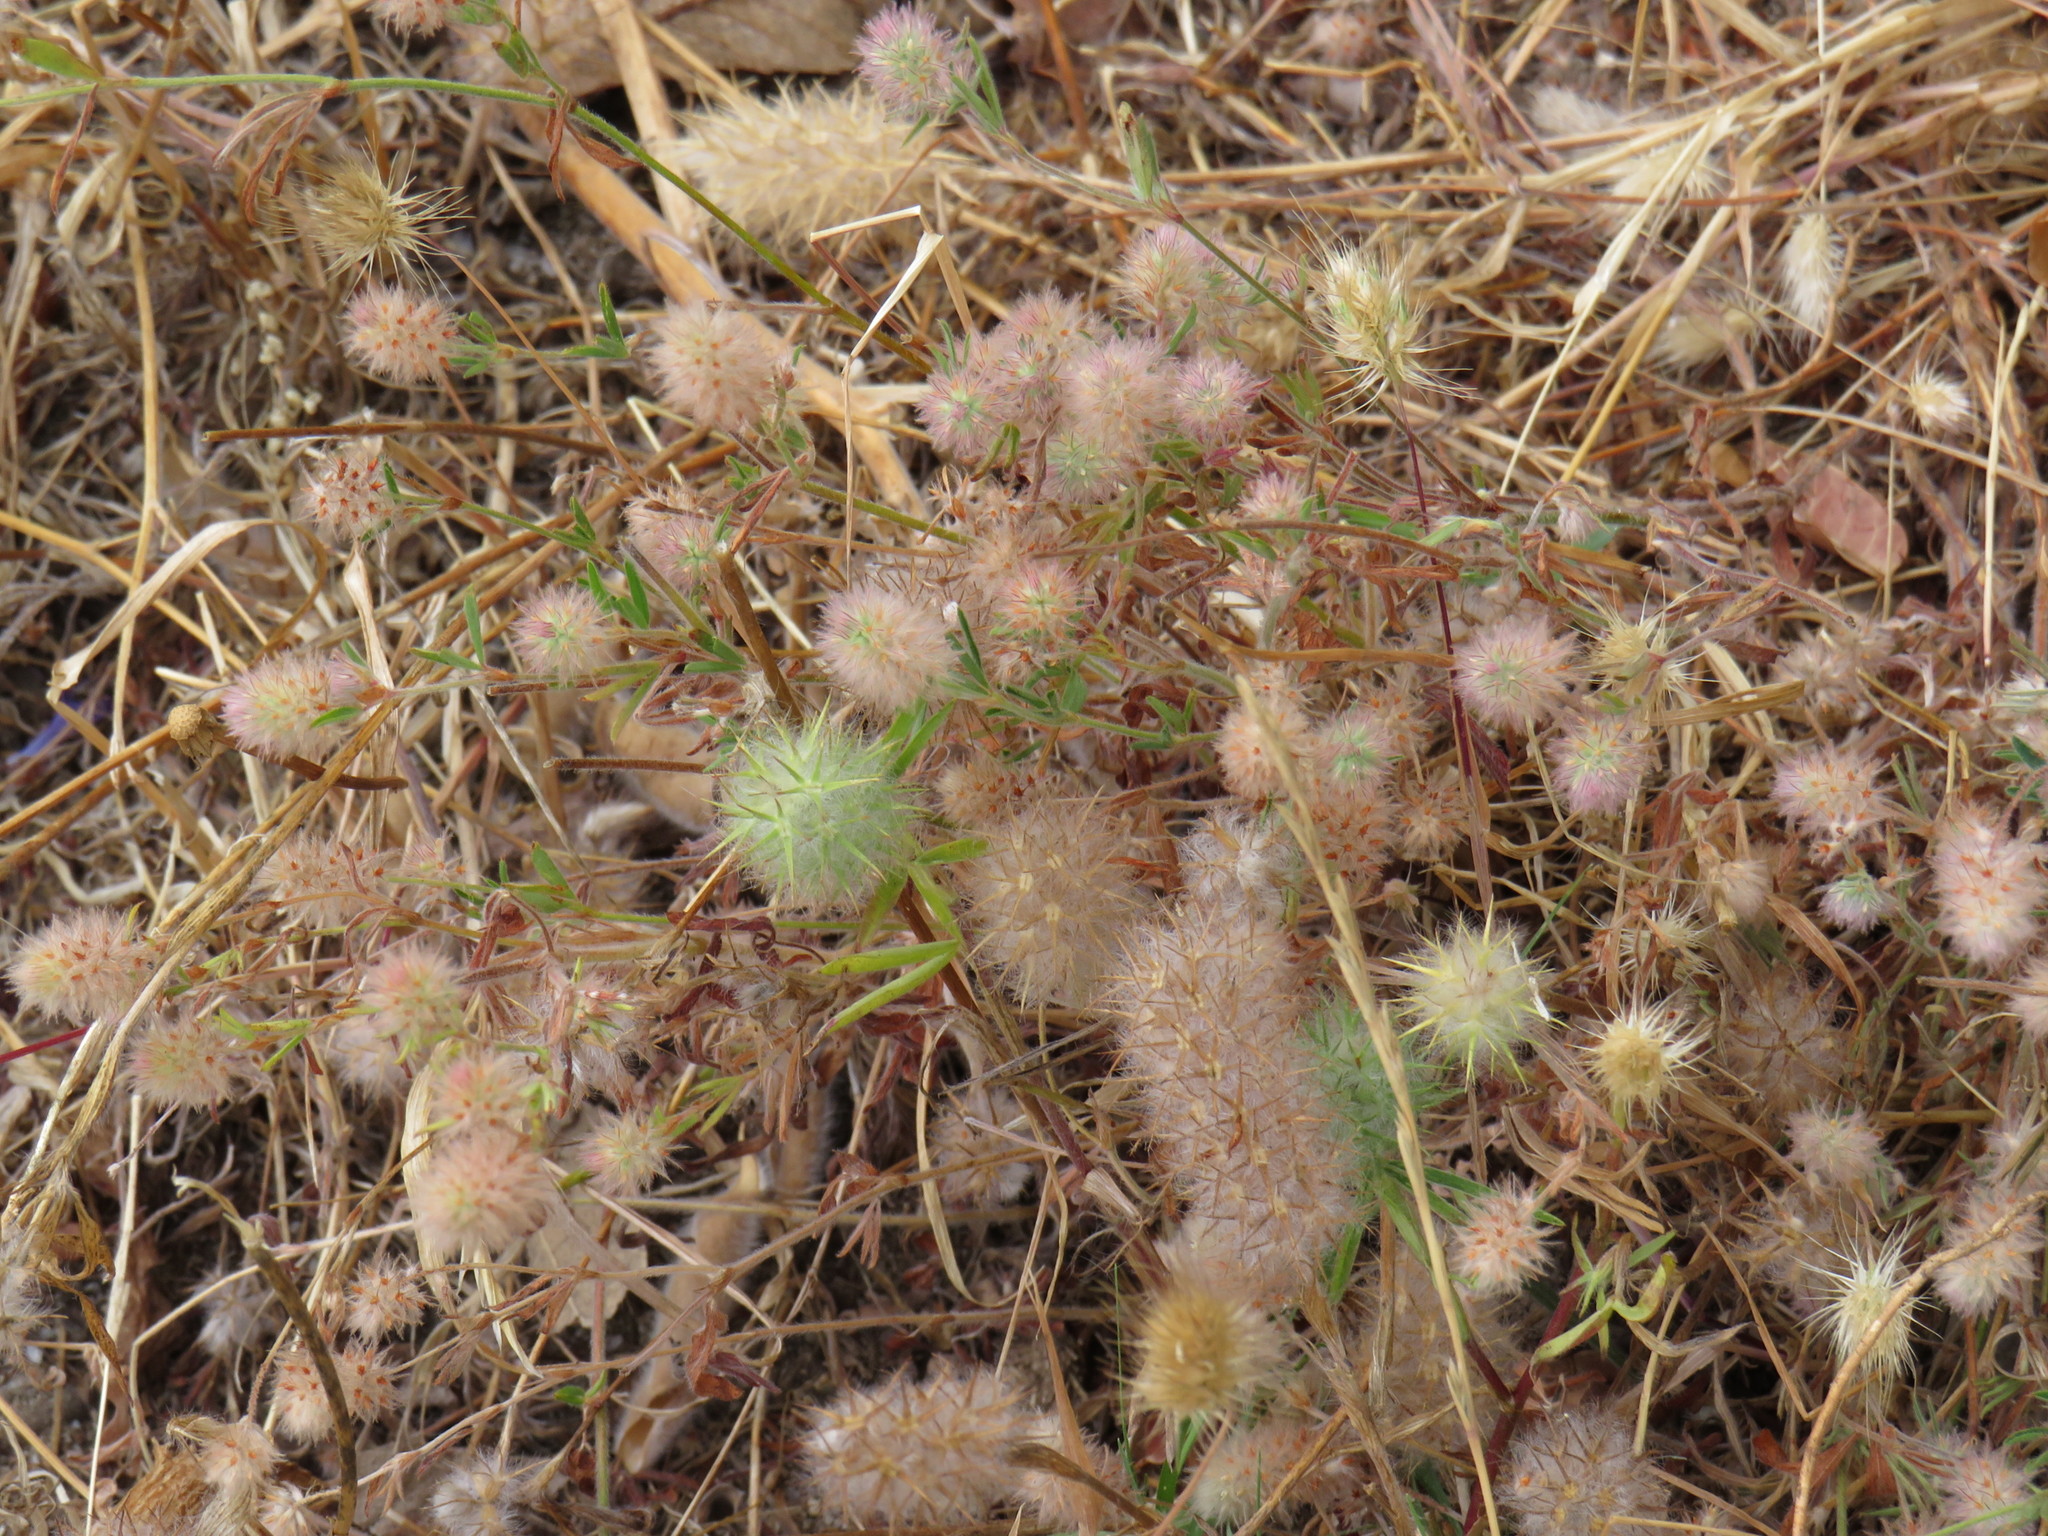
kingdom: Plantae
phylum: Tracheophyta
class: Magnoliopsida
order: Fabales
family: Fabaceae
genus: Trifolium
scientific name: Trifolium arvense
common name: Hare's-foot clover
